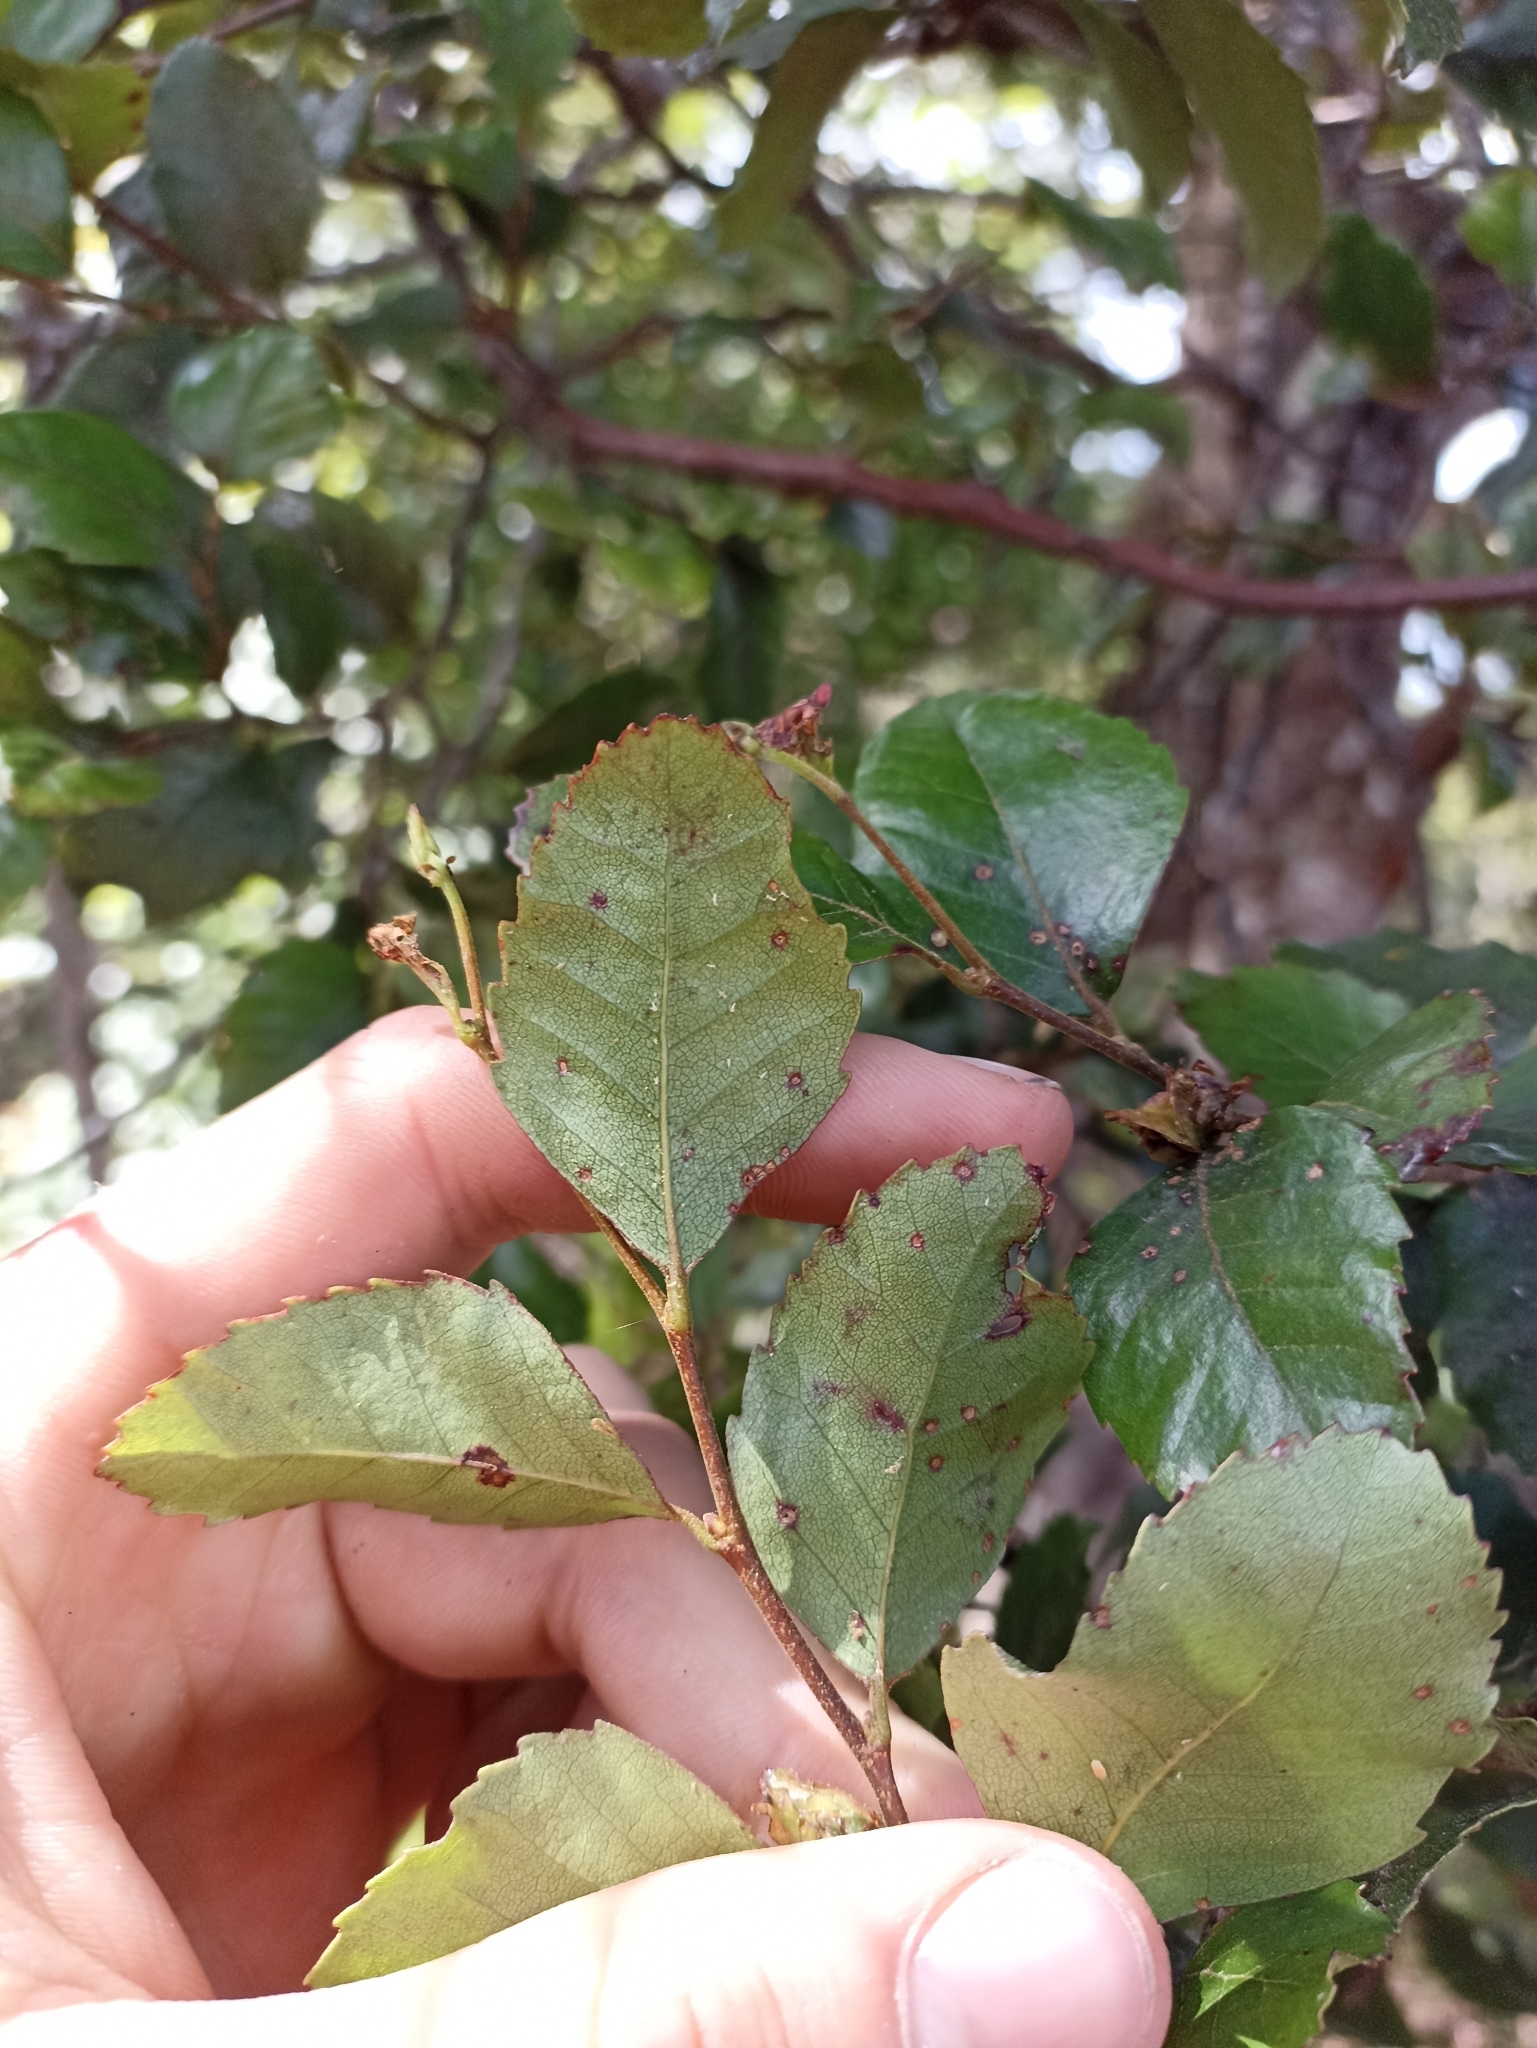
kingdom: Plantae
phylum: Tracheophyta
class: Magnoliopsida
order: Fagales
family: Nothofagaceae
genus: Nothofagus
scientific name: Nothofagus truncata
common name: Hard beech
